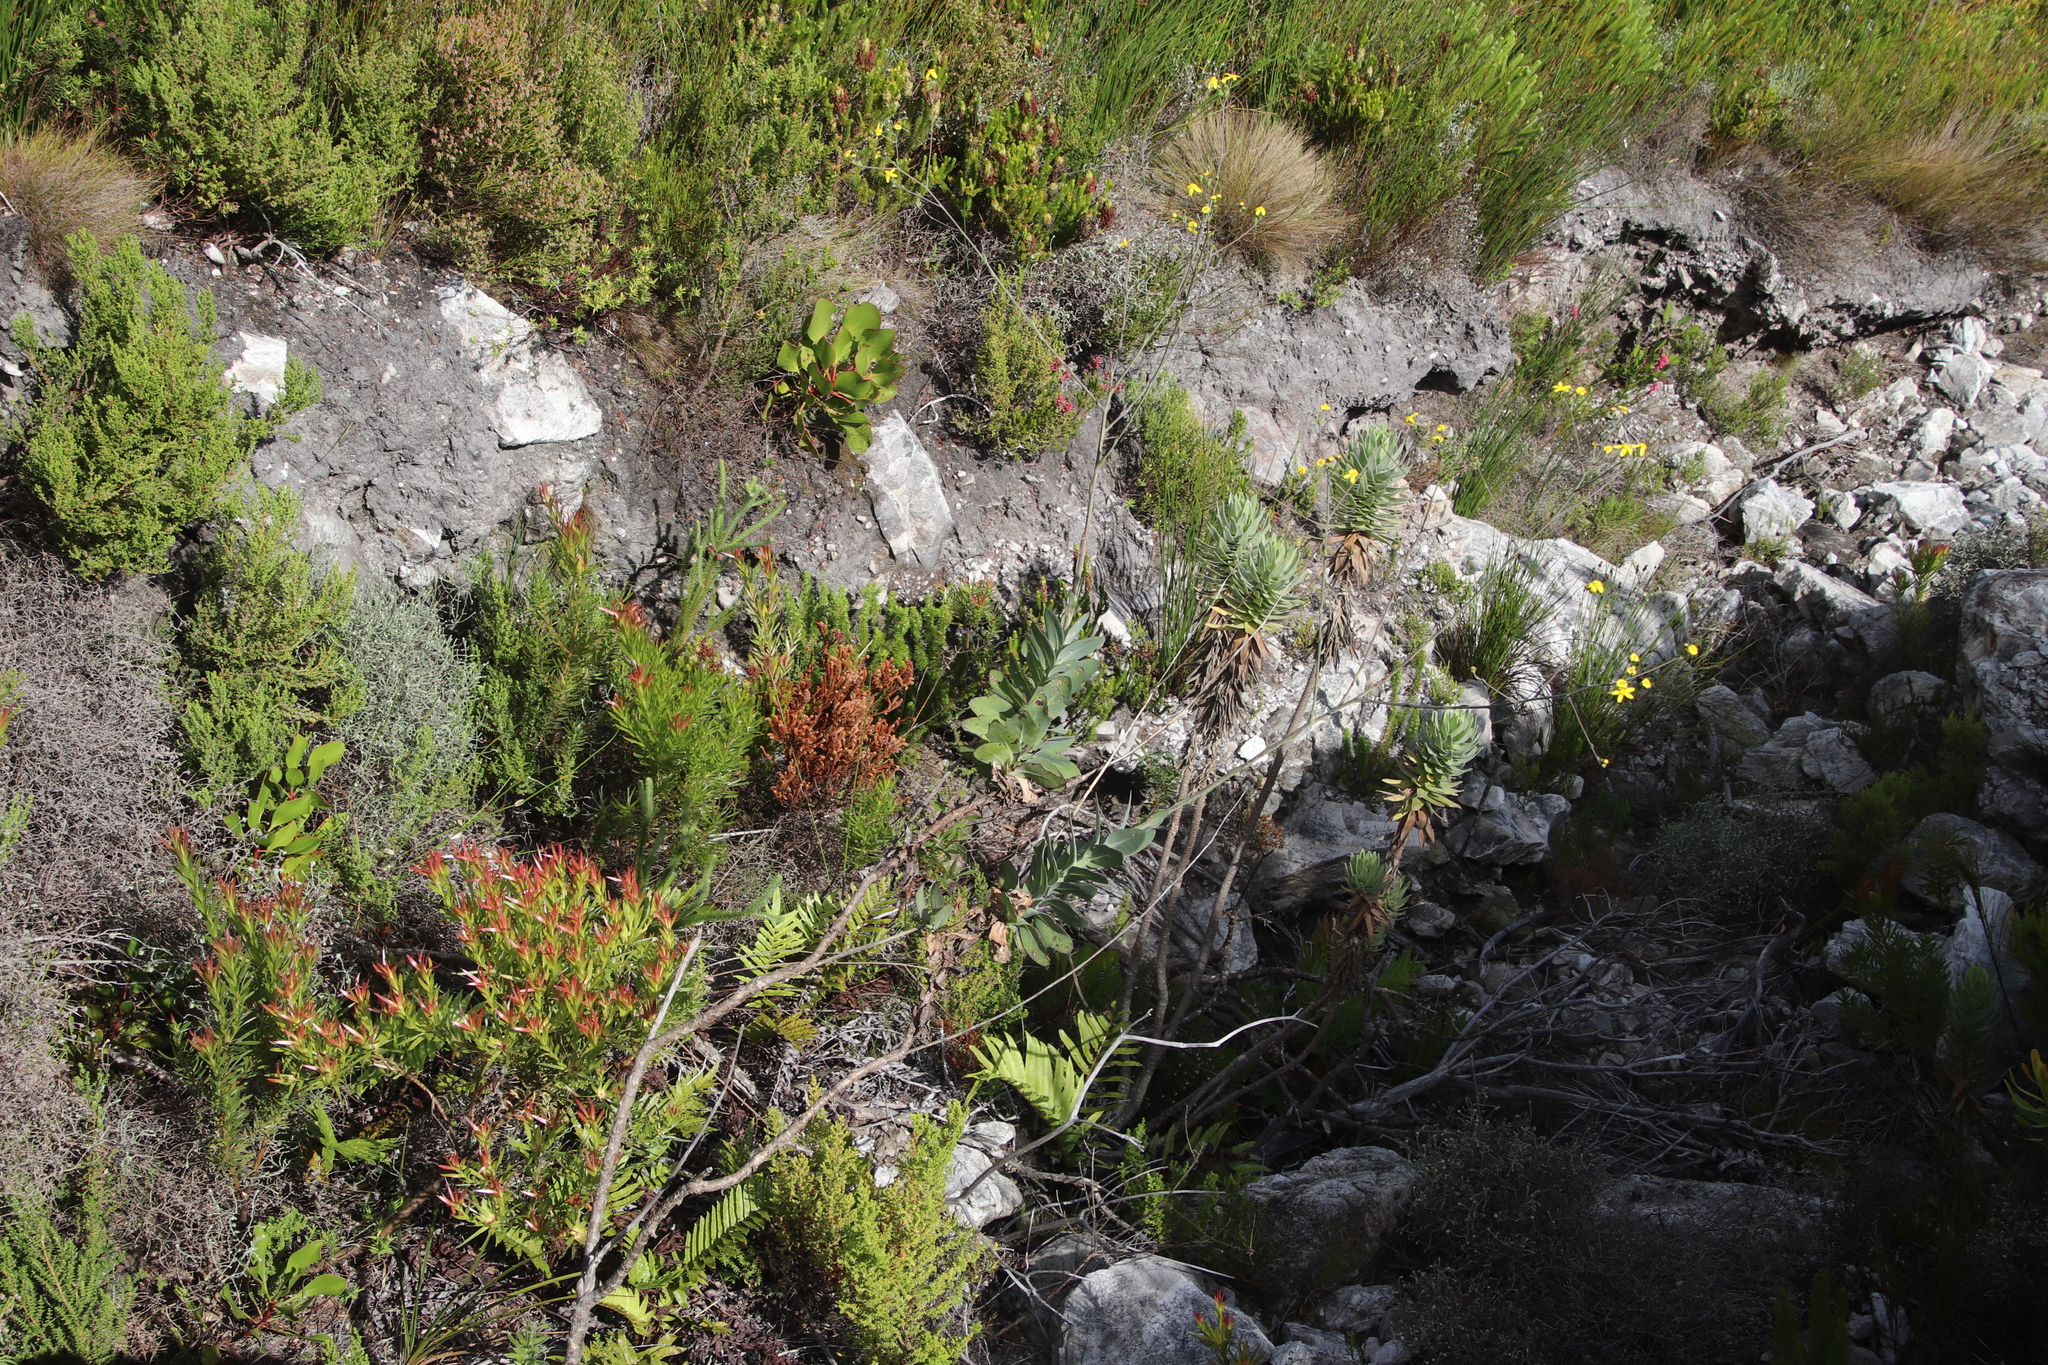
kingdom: Plantae
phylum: Tracheophyta
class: Magnoliopsida
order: Asterales
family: Asteraceae
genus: Othonna
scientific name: Othonna quinquedentata
